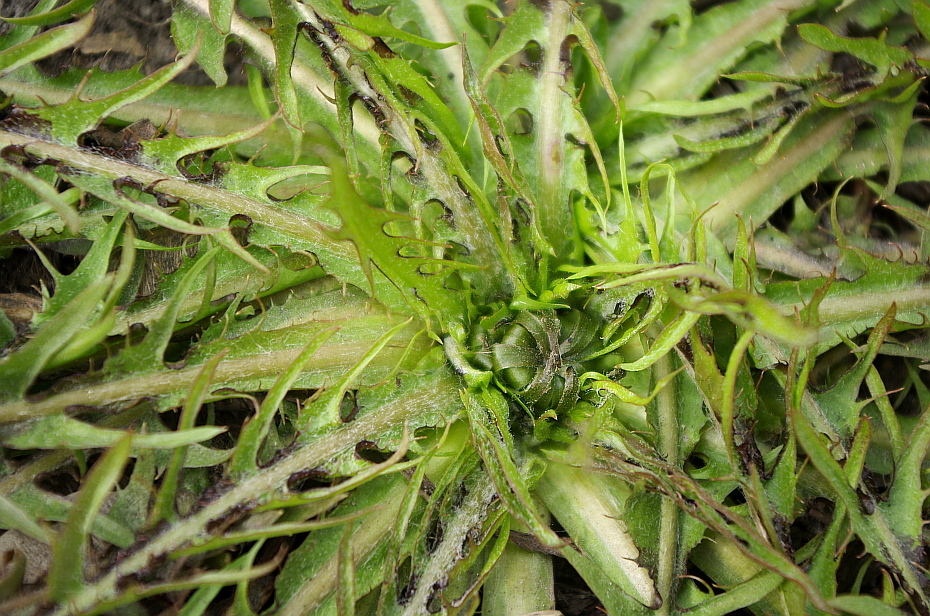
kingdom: Plantae
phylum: Tracheophyta
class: Magnoliopsida
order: Asterales
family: Asteraceae
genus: Taraxacum
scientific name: Taraxacum officinale
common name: Common dandelion
